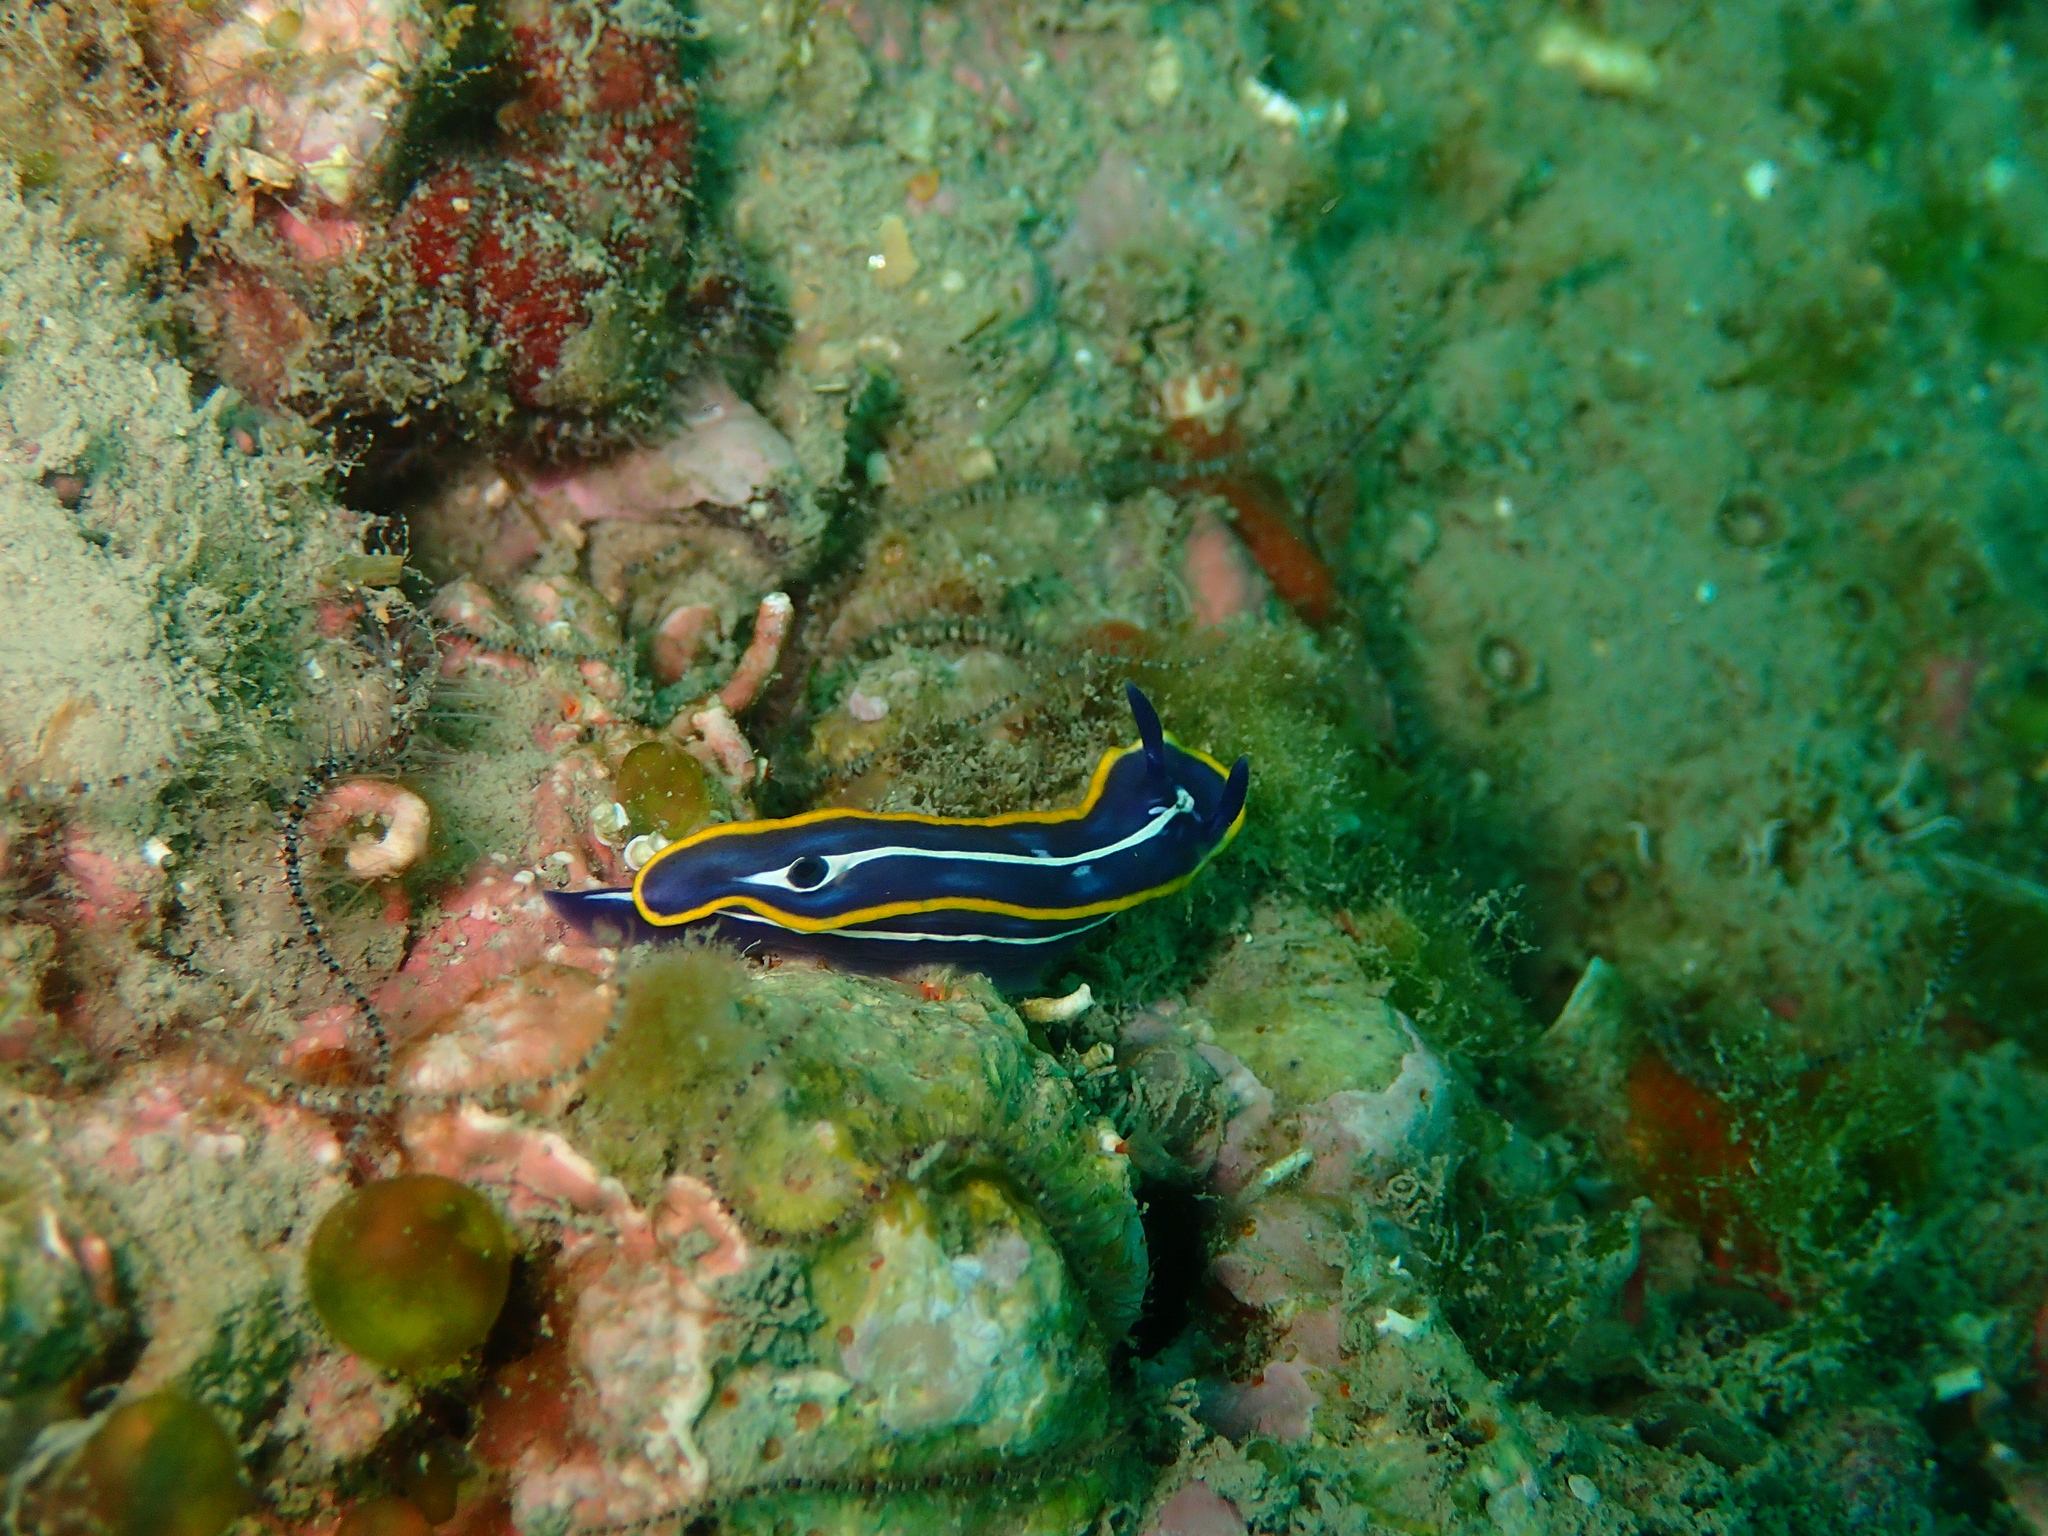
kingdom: Animalia
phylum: Mollusca
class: Gastropoda
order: Nudibranchia
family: Chromodorididae
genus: Felimare
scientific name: Felimare fontandraui
